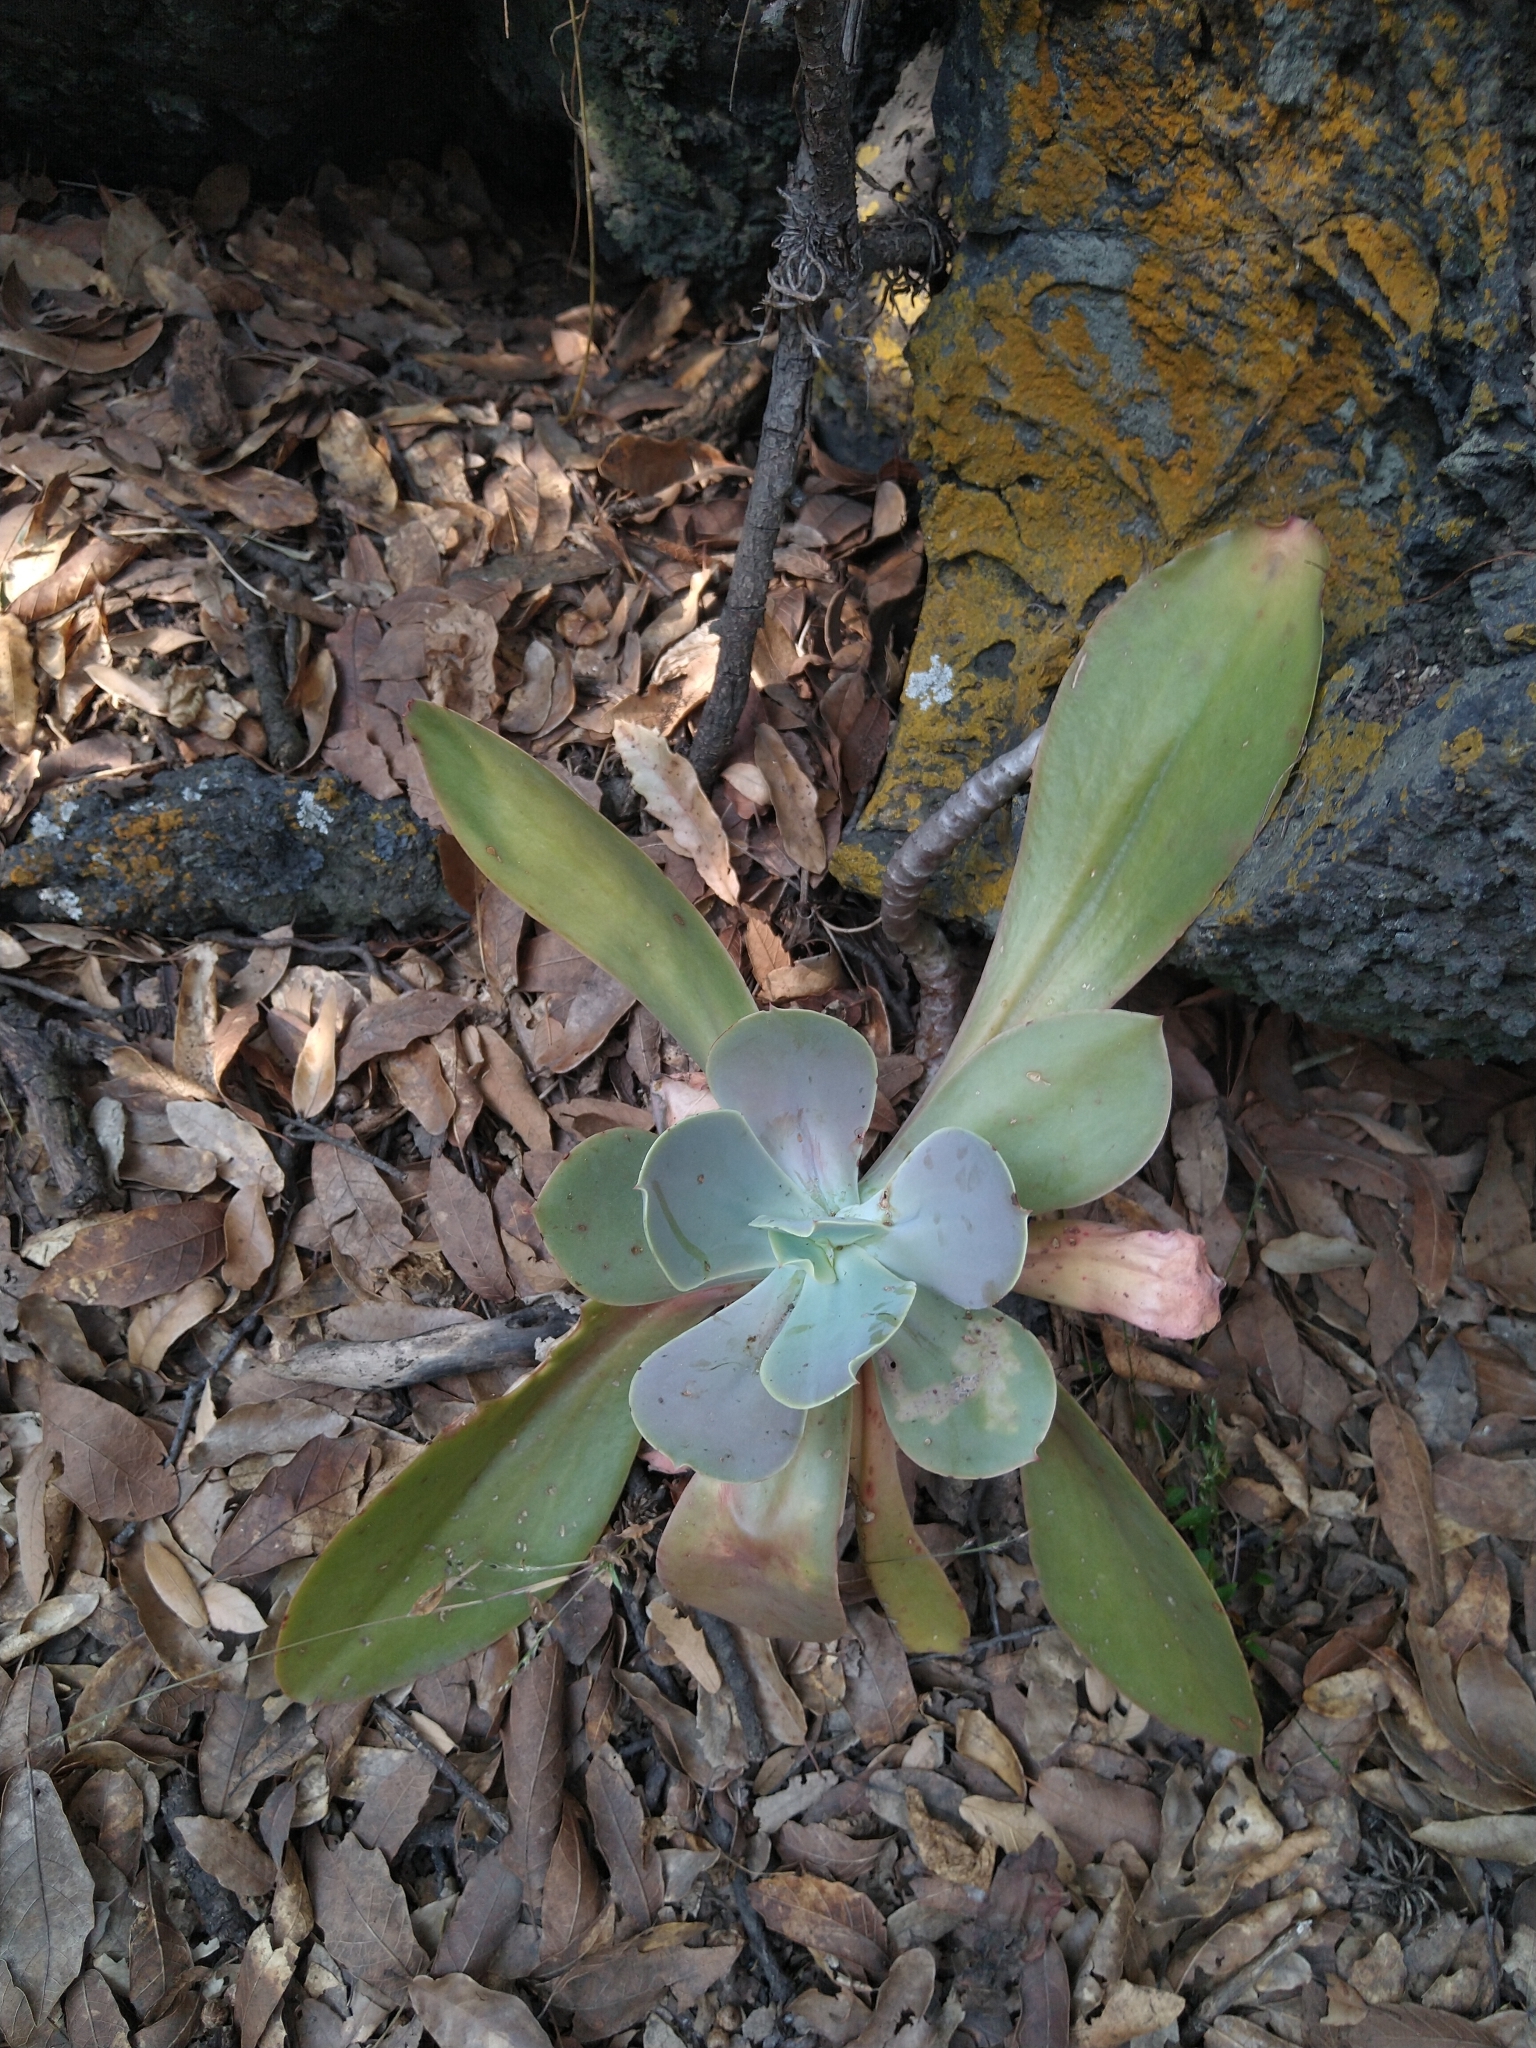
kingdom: Plantae
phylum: Tracheophyta
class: Magnoliopsida
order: Saxifragales
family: Crassulaceae
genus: Echeveria
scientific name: Echeveria gibbiflora
